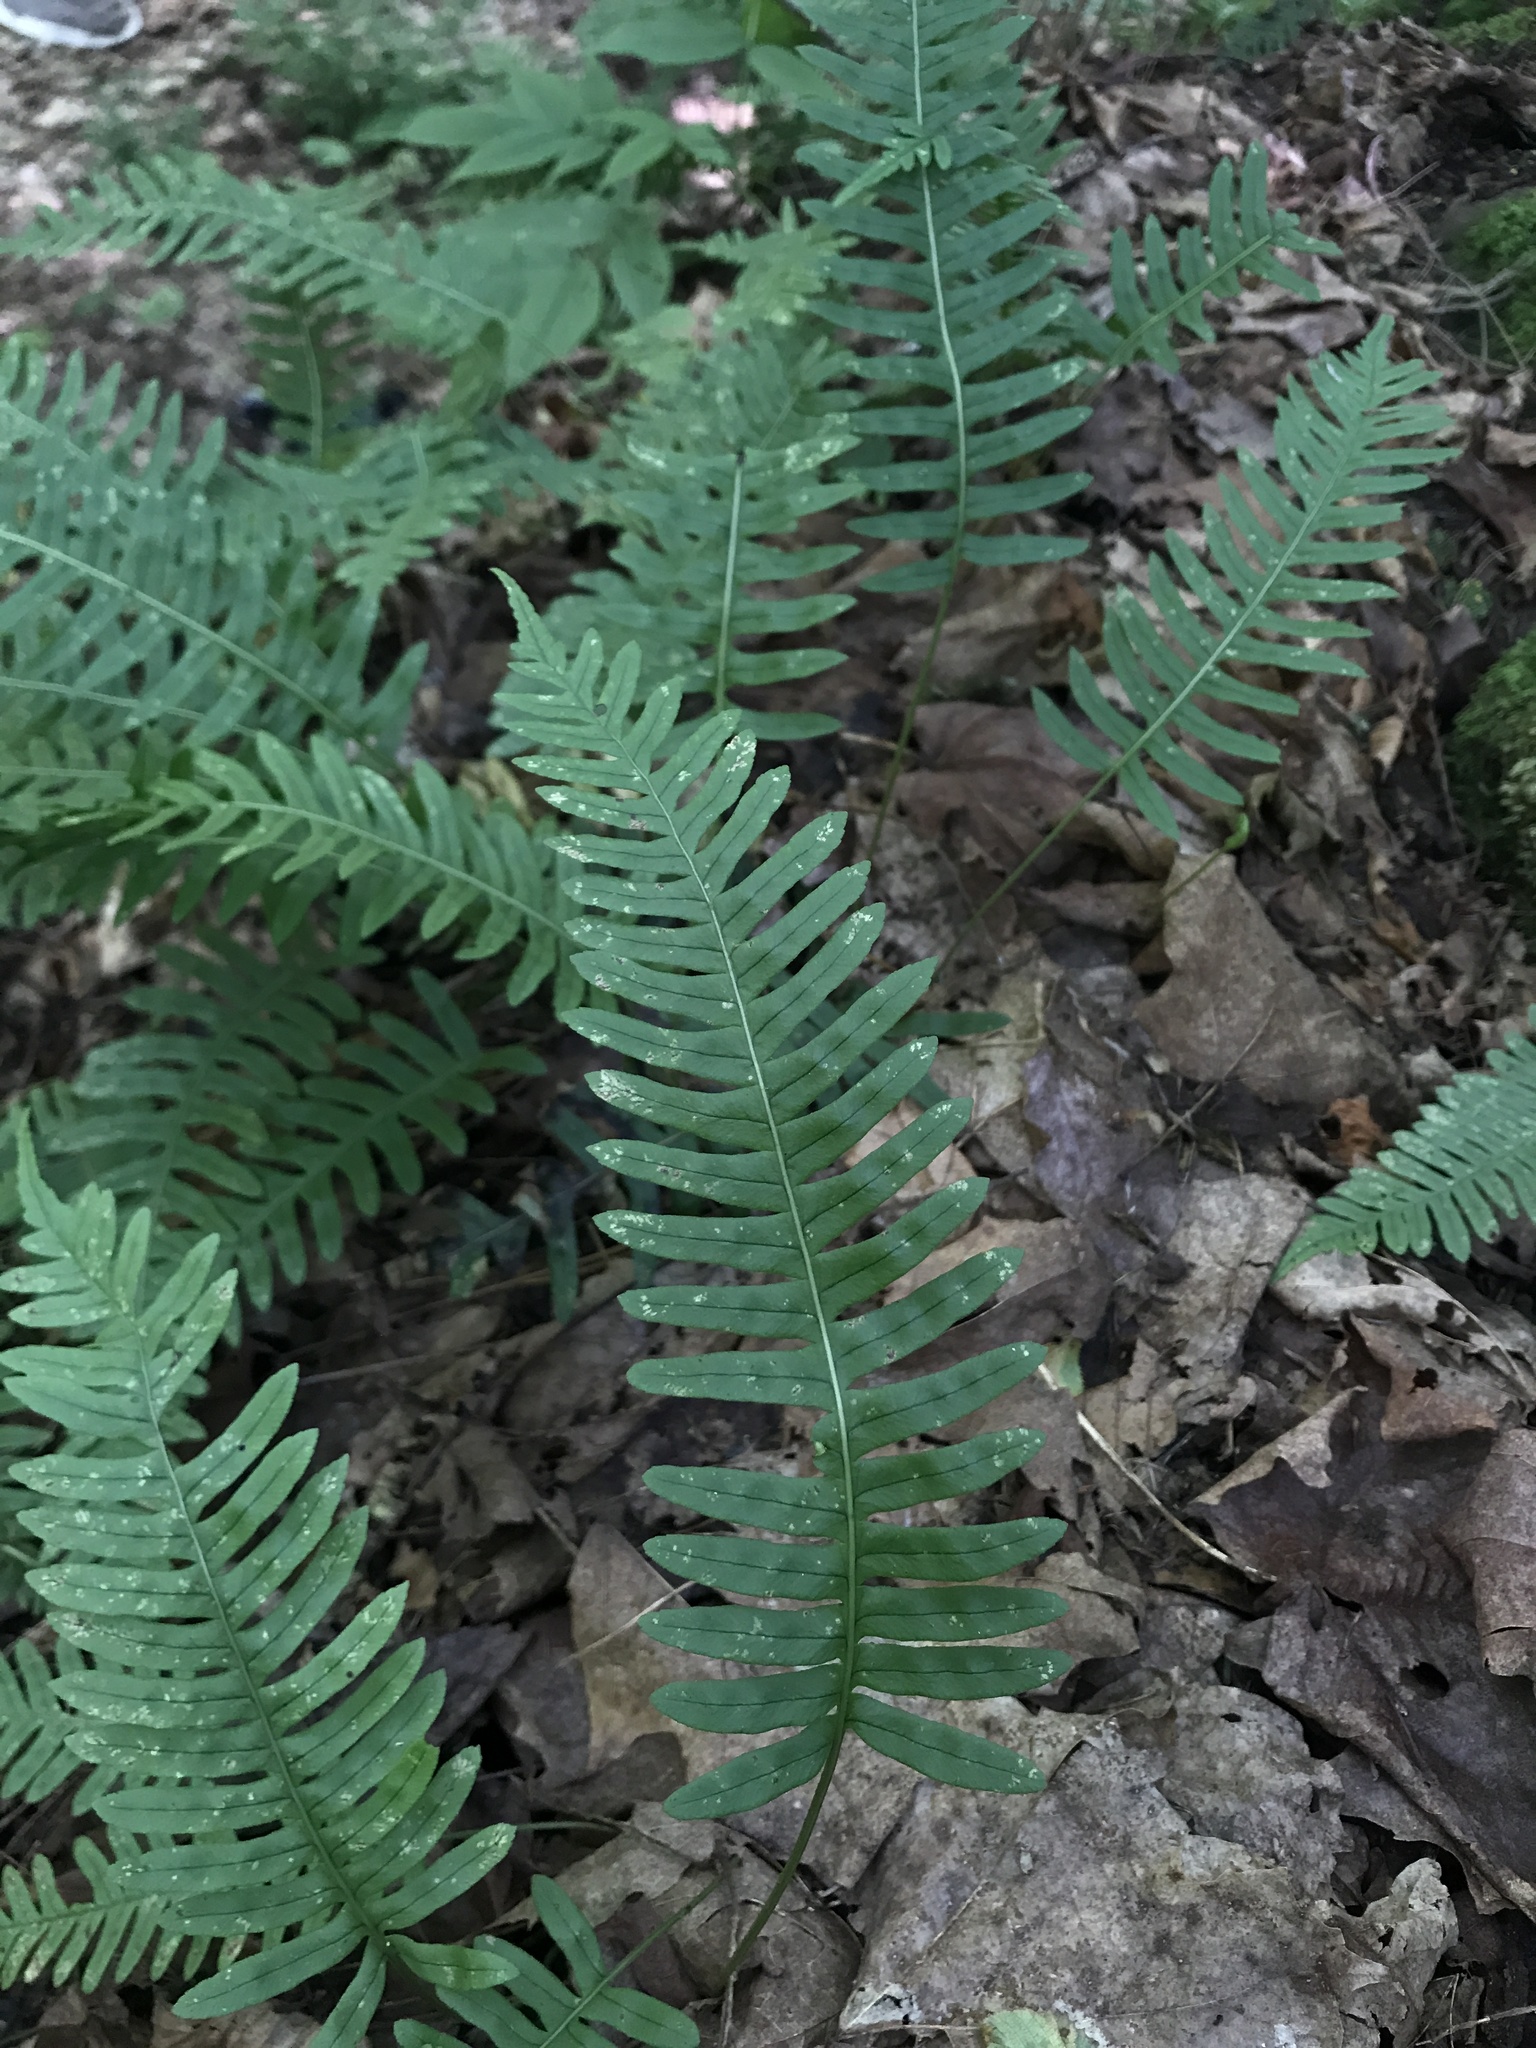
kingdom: Plantae
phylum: Tracheophyta
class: Polypodiopsida
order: Polypodiales
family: Polypodiaceae
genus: Polypodium
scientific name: Polypodium virginianum
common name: American wall fern
